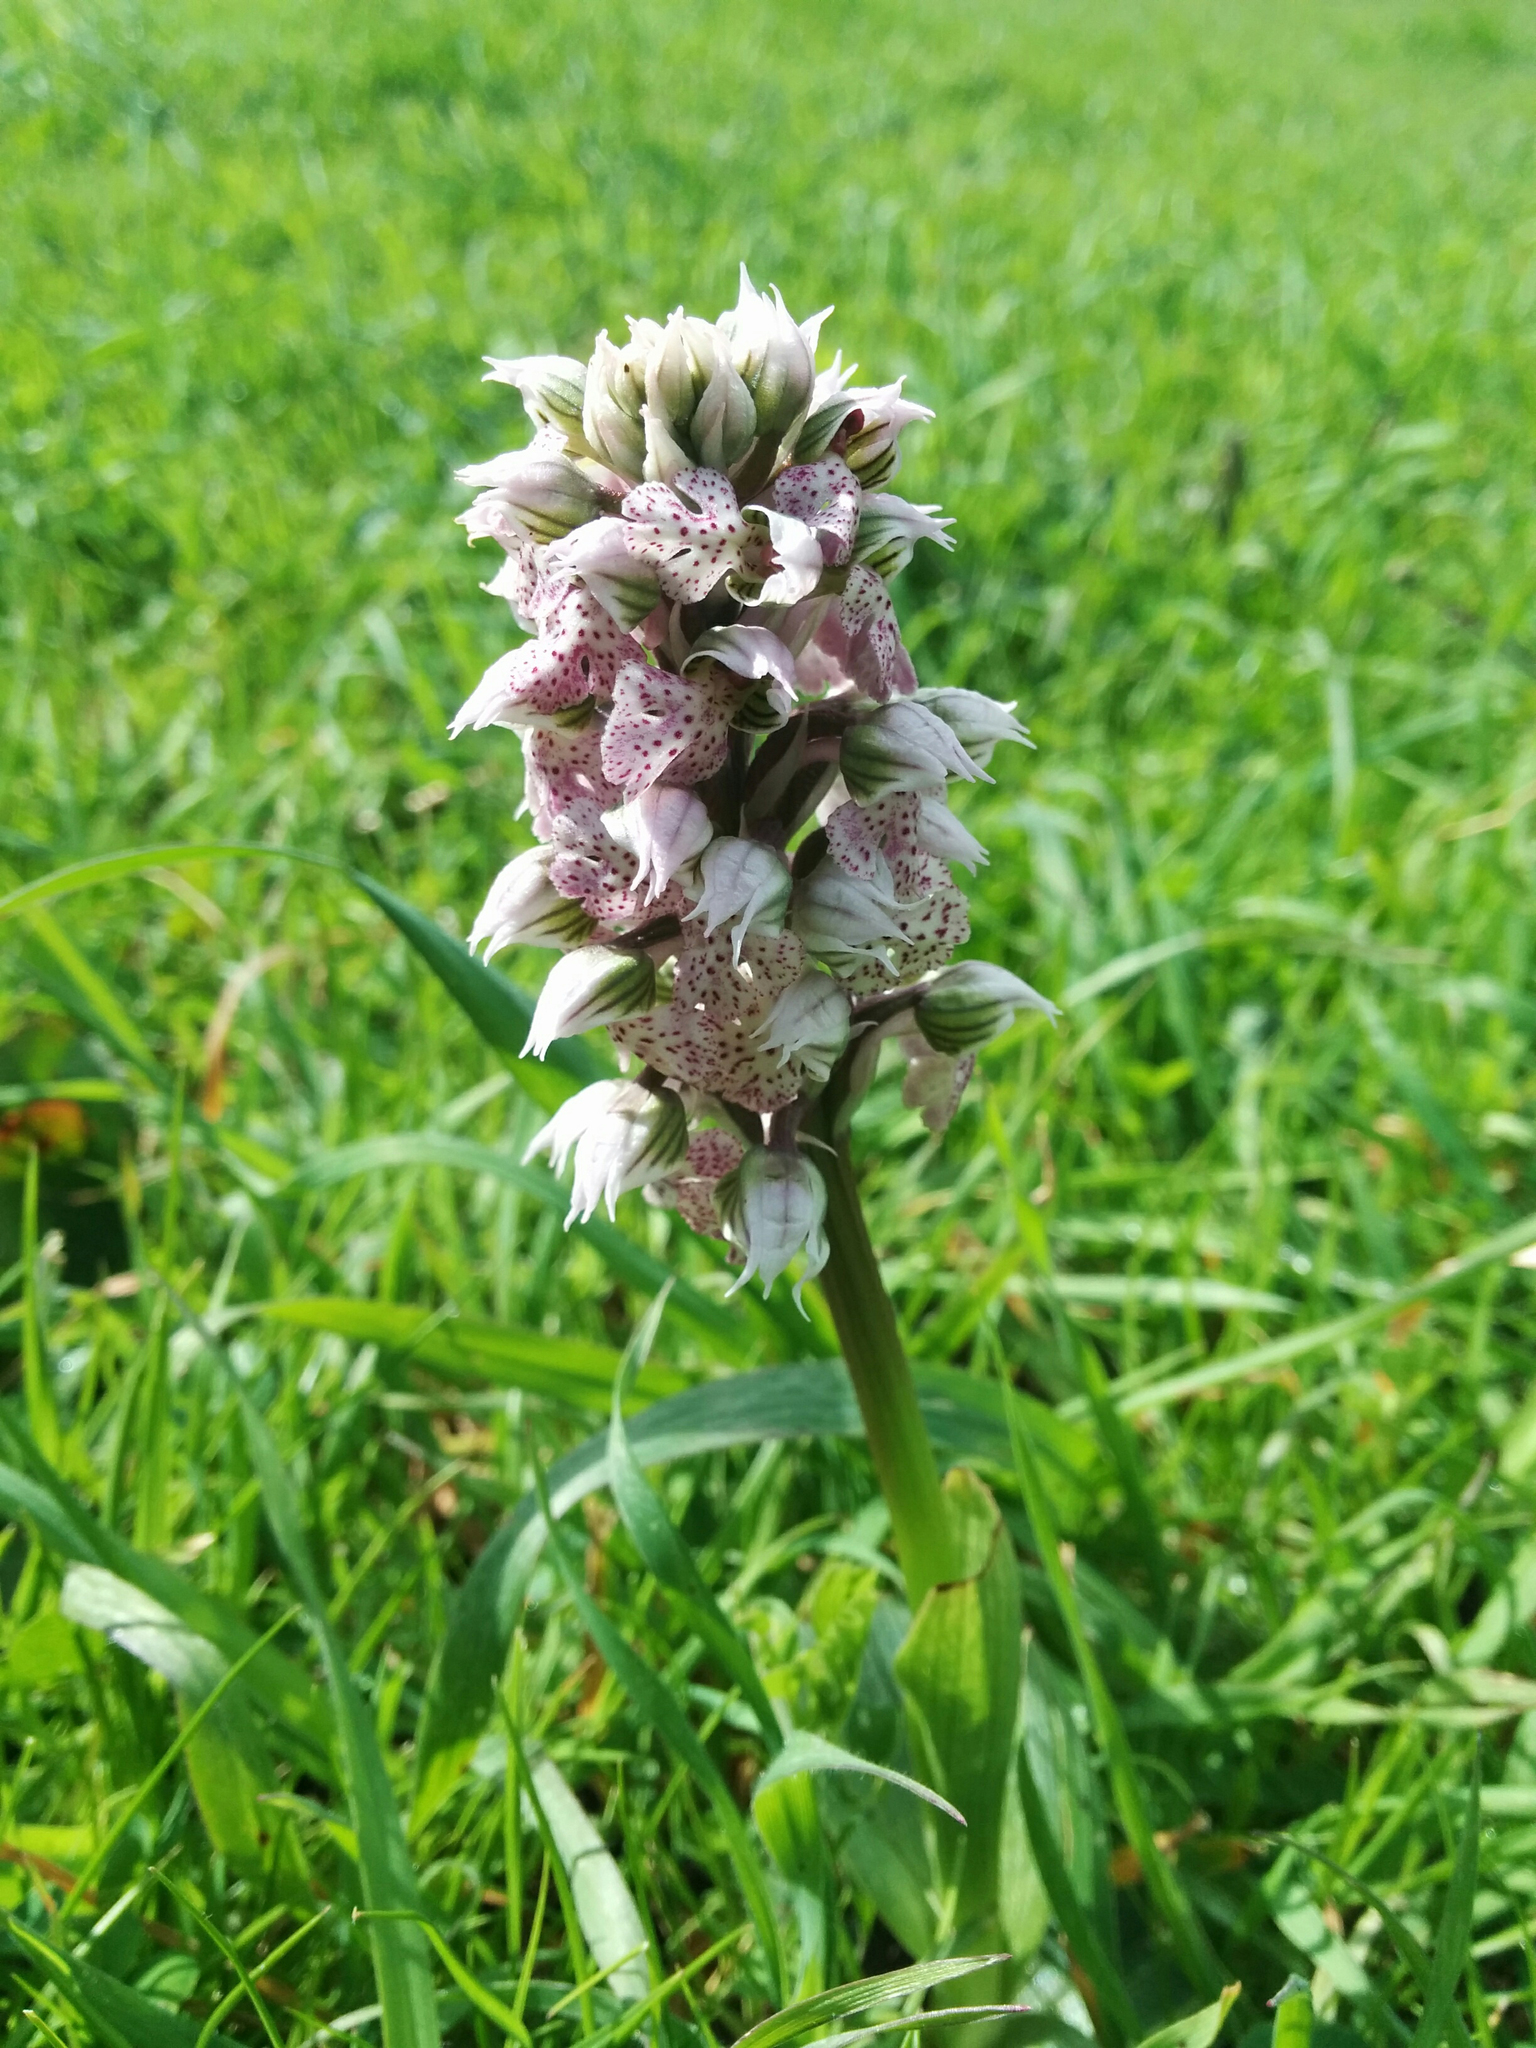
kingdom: Plantae
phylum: Tracheophyta
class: Liliopsida
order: Asparagales
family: Orchidaceae
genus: Neotinea
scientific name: Neotinea lactea
